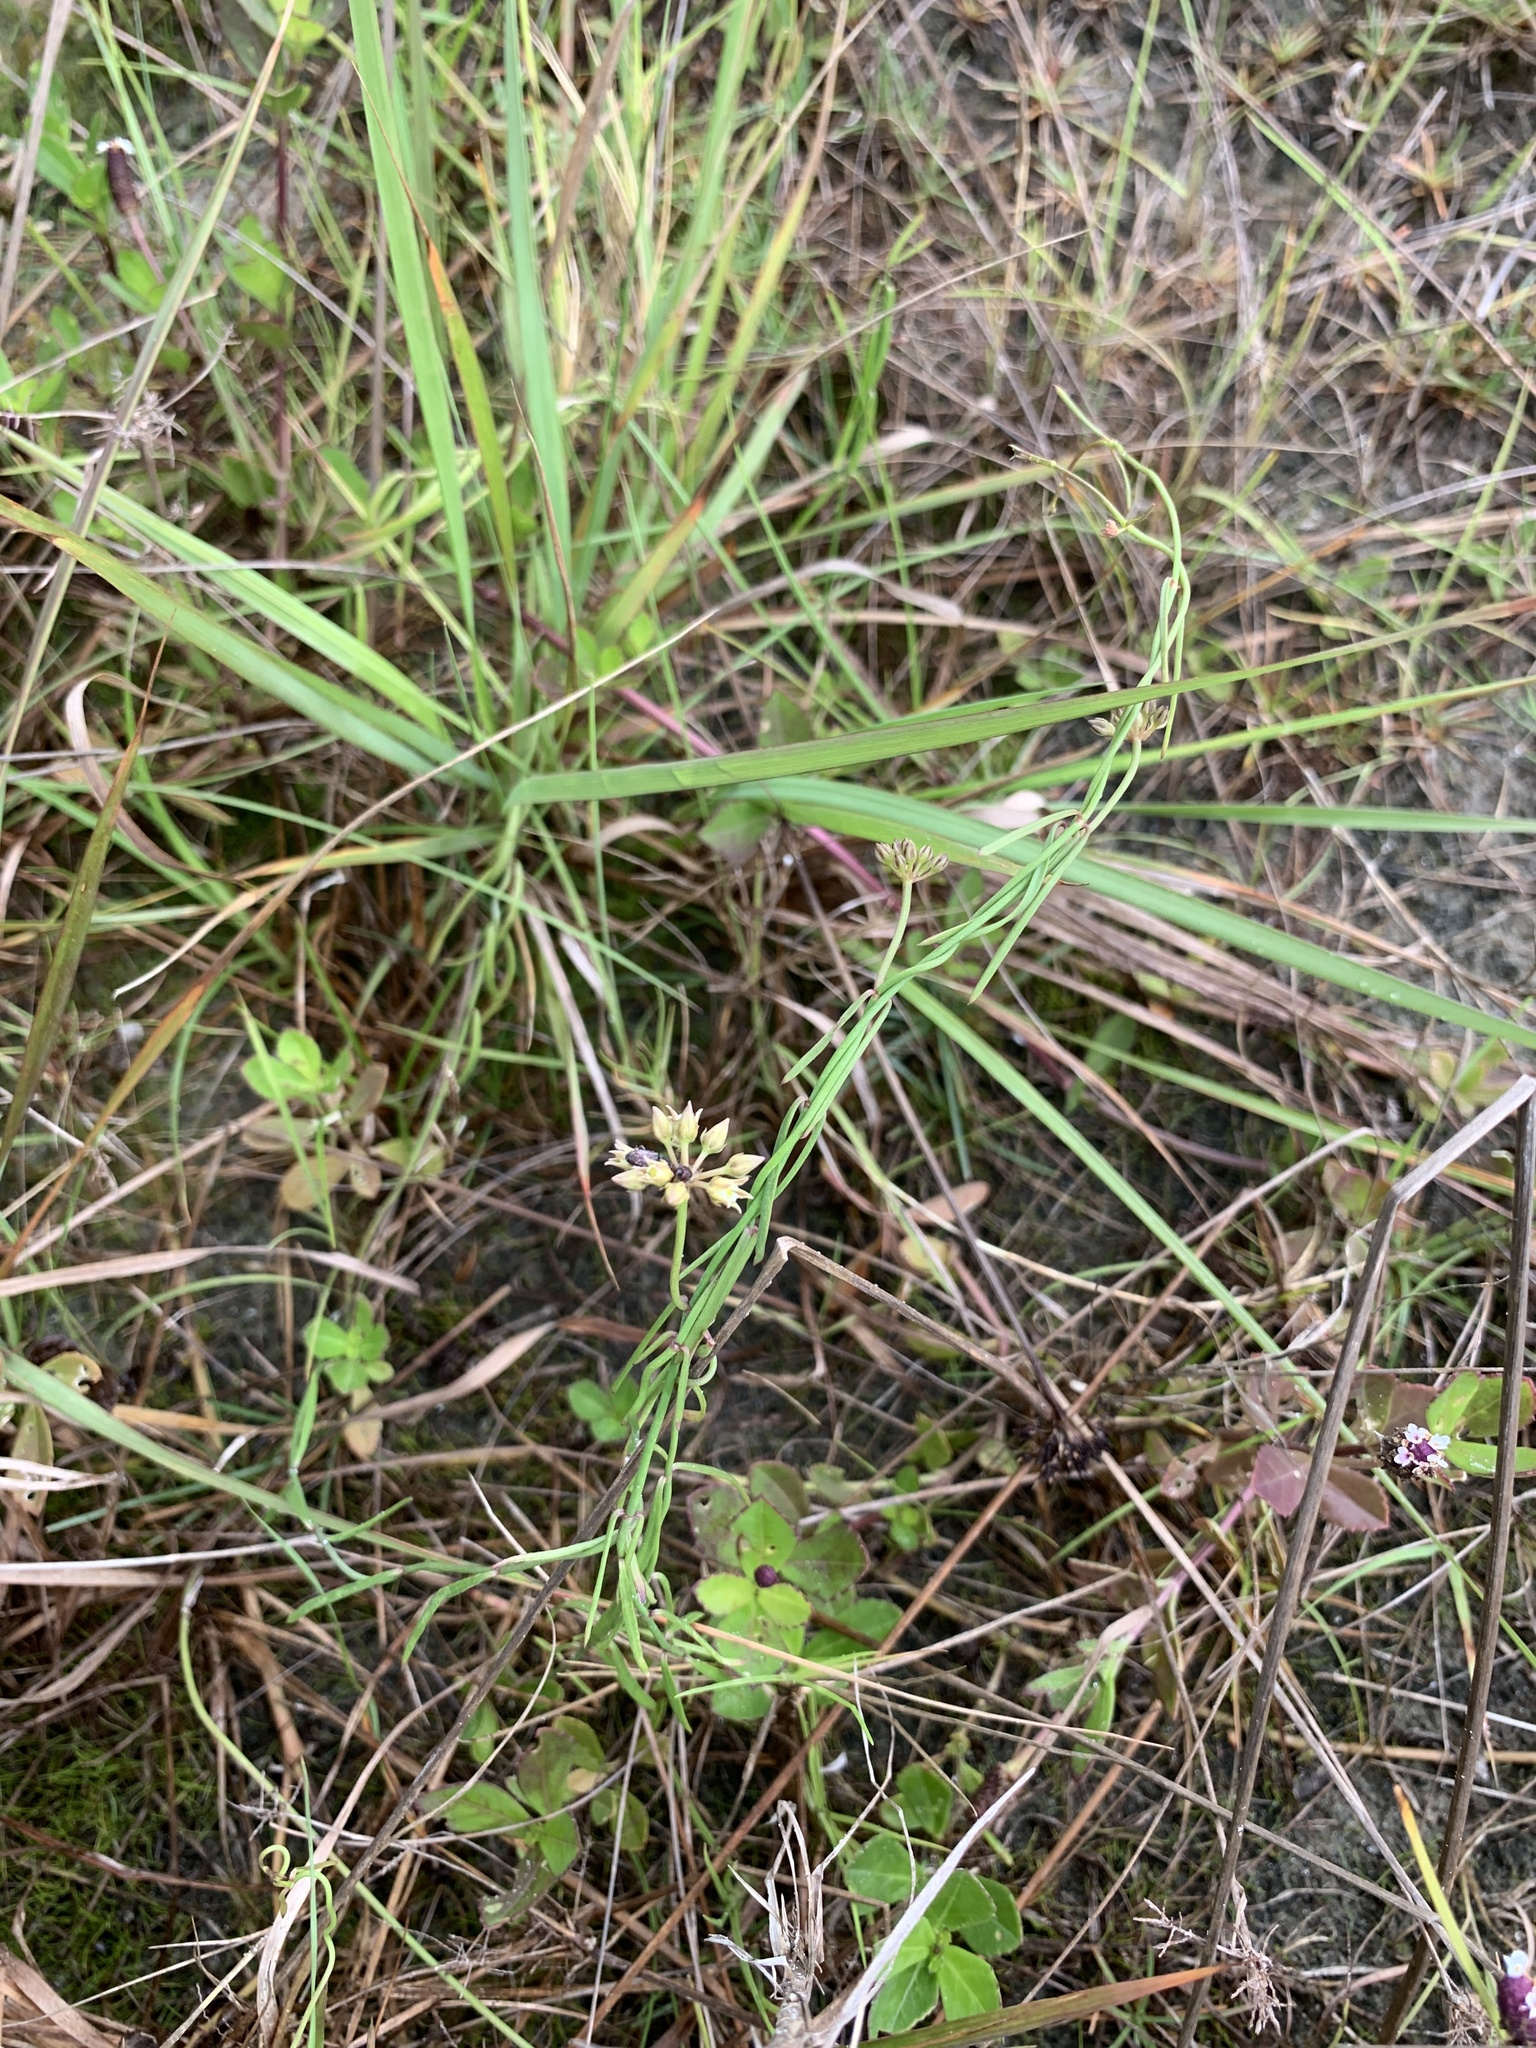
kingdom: Plantae
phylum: Tracheophyta
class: Magnoliopsida
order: Gentianales
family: Apocynaceae
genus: Pattalias
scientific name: Pattalias
